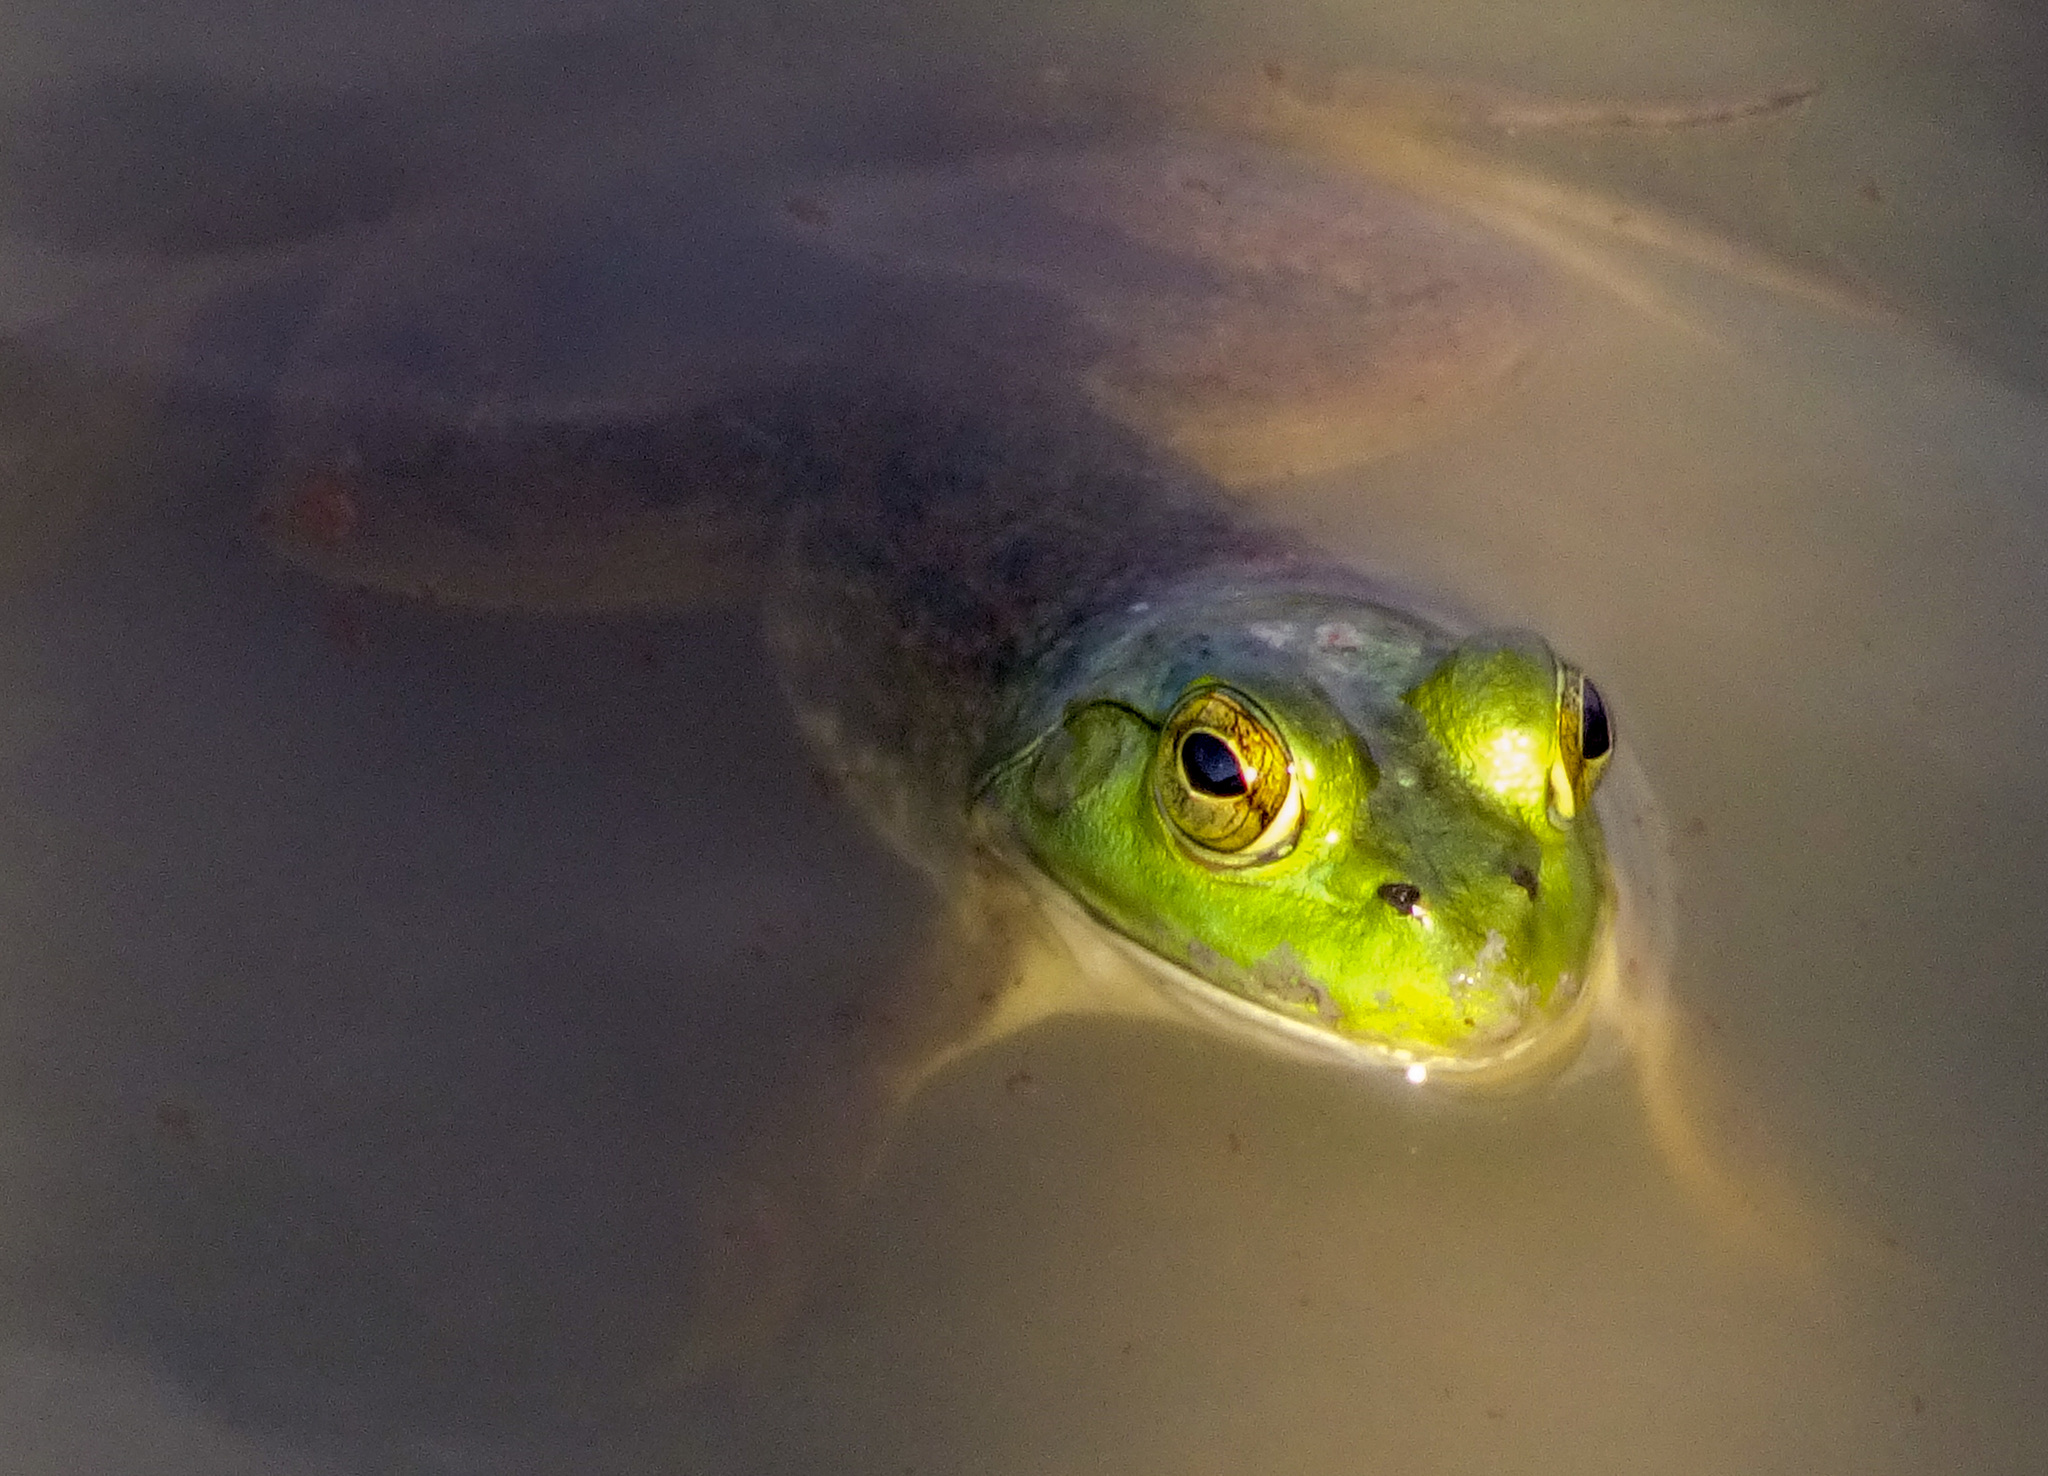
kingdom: Animalia
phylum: Chordata
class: Amphibia
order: Anura
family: Ranidae
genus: Lithobates
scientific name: Lithobates catesbeianus
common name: American bullfrog
